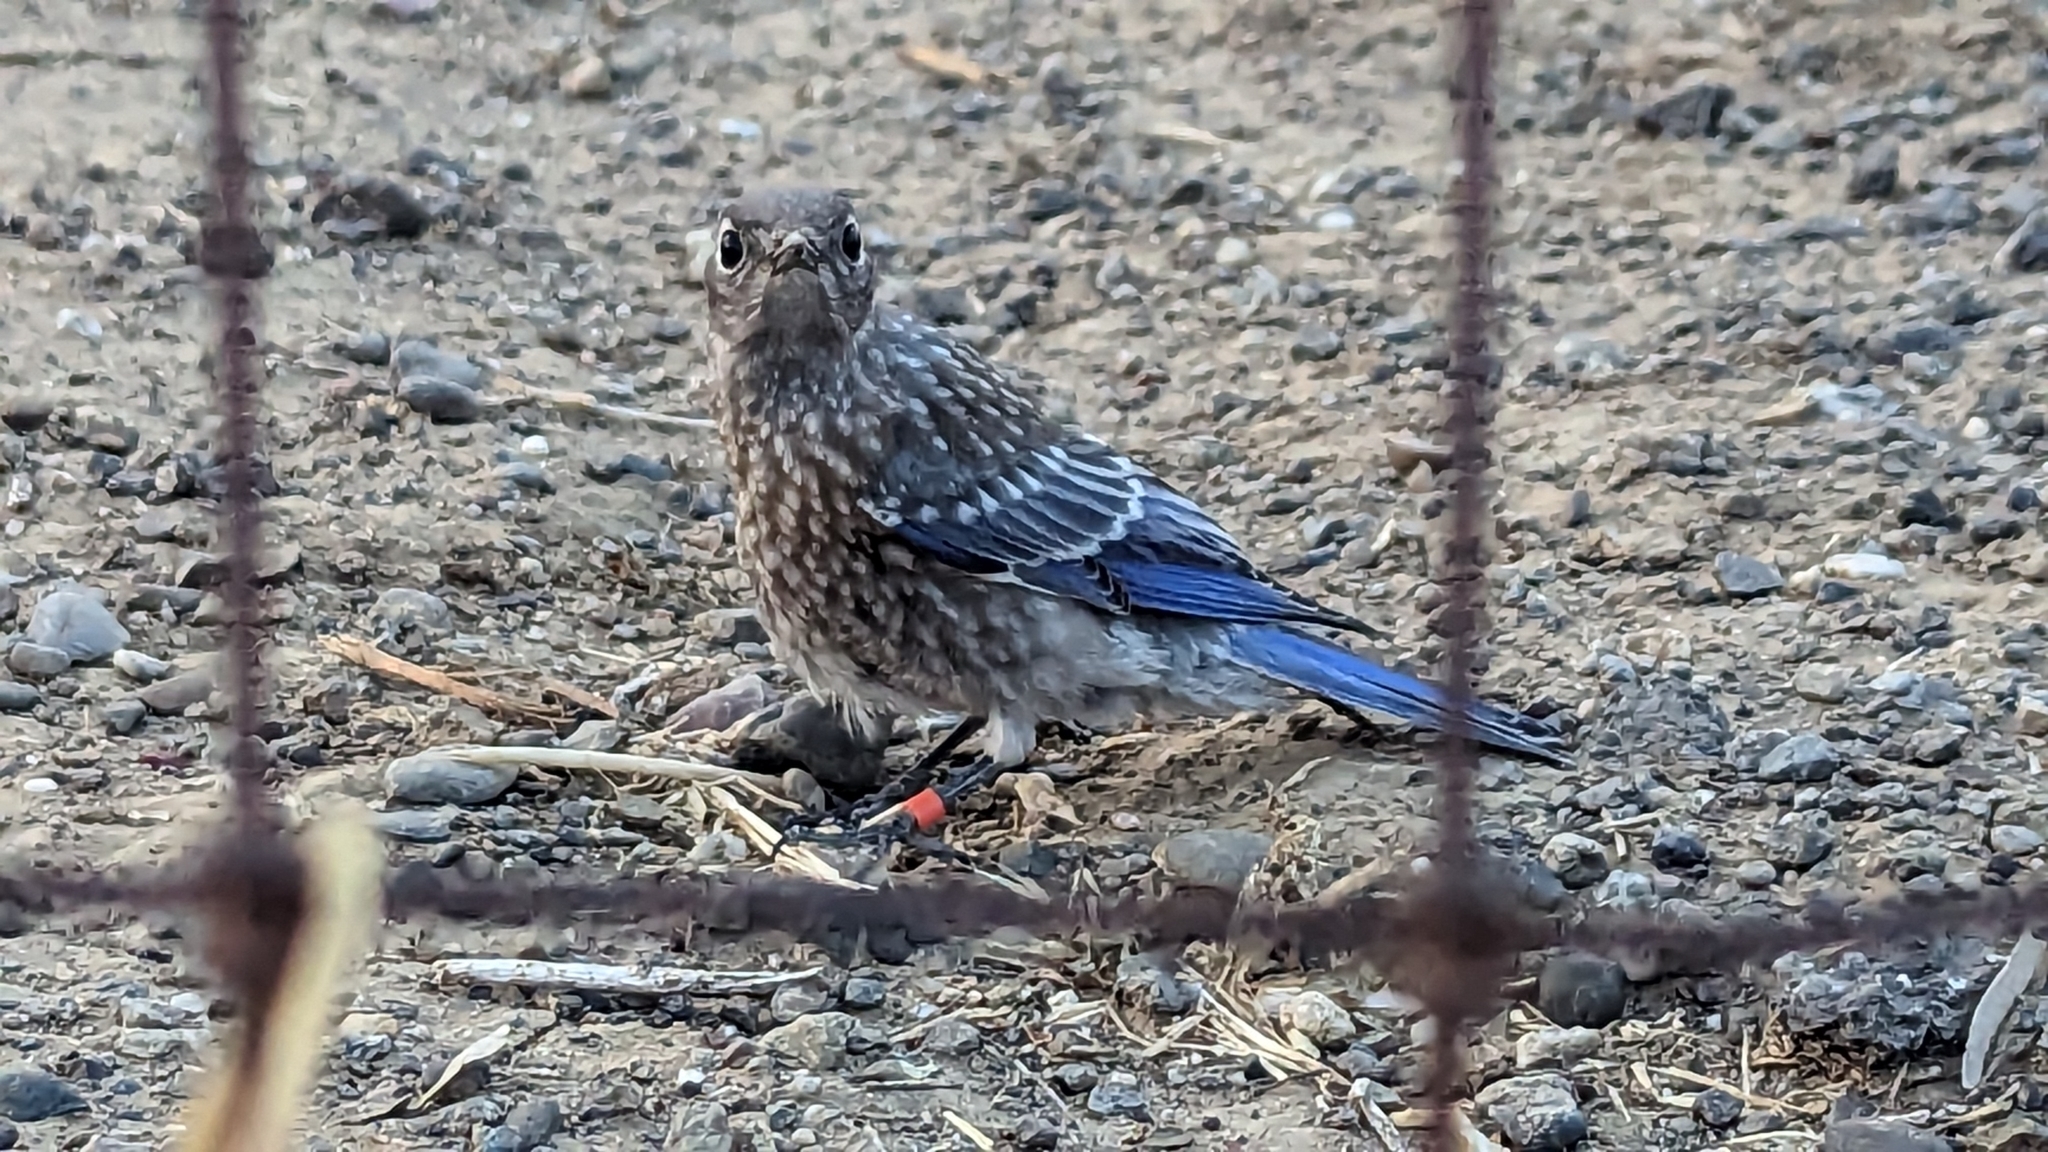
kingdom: Animalia
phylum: Chordata
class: Aves
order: Passeriformes
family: Turdidae
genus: Sialia
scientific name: Sialia mexicana
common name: Western bluebird
